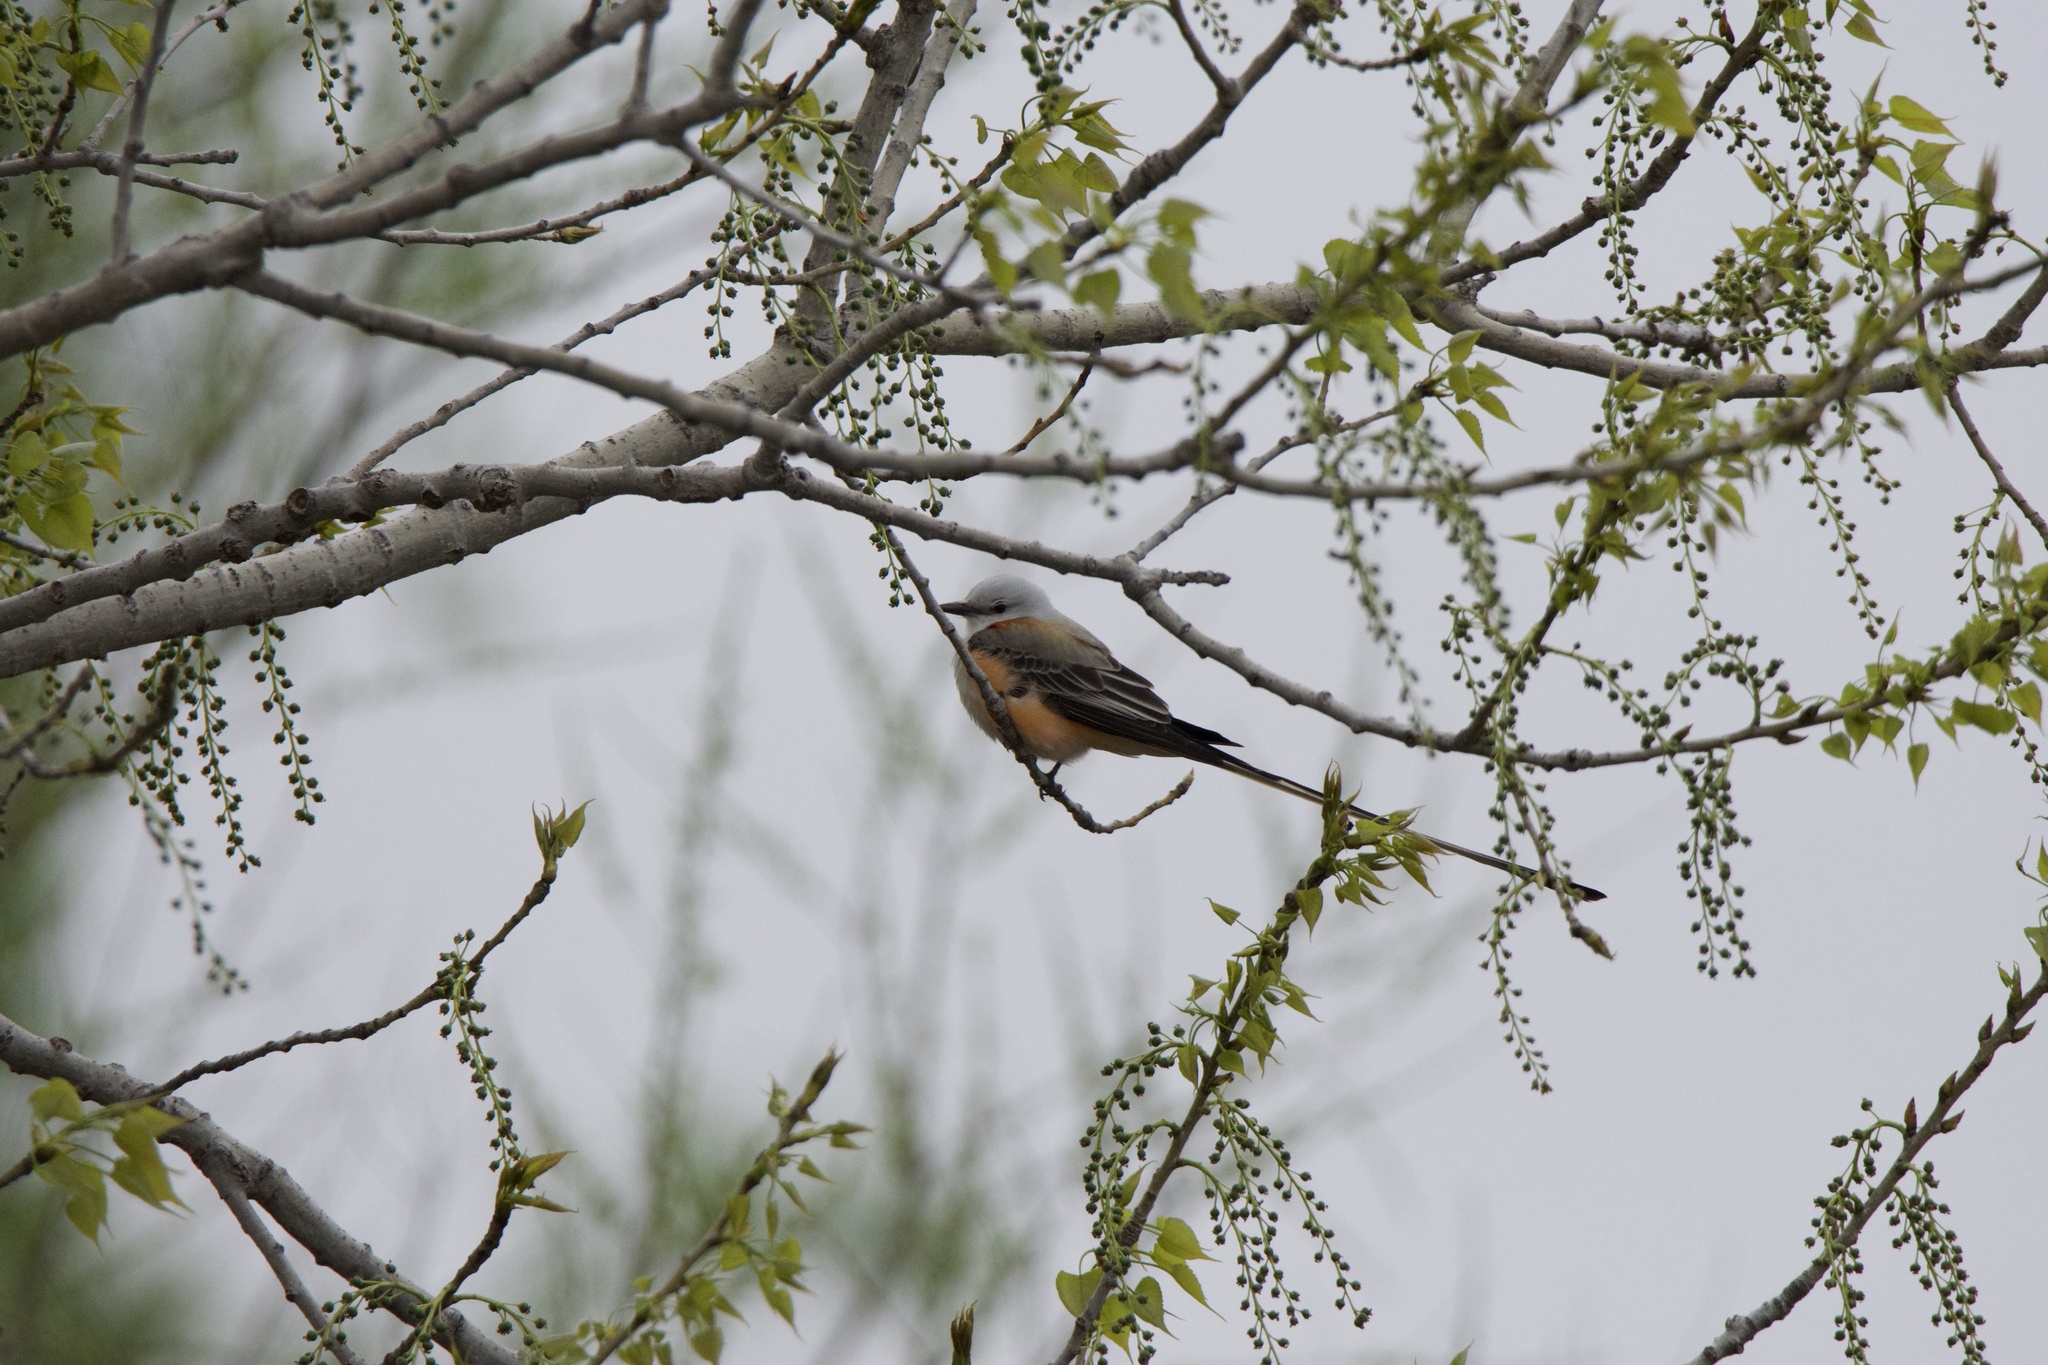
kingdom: Animalia
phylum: Chordata
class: Aves
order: Passeriformes
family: Tyrannidae
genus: Tyrannus
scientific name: Tyrannus forficatus
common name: Scissor-tailed flycatcher
